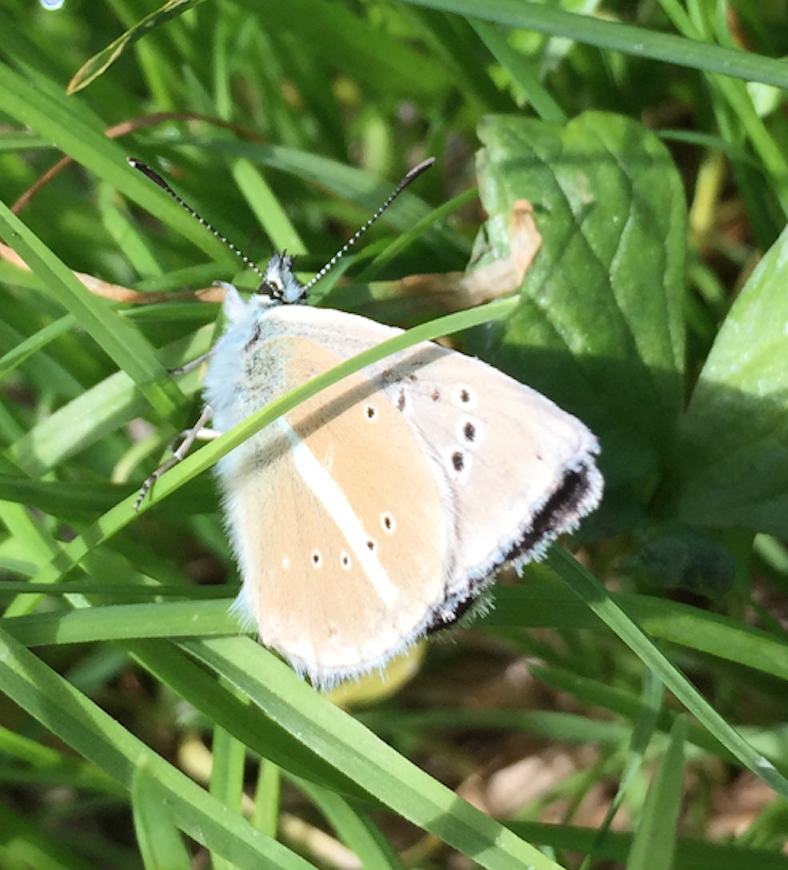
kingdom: Animalia
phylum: Arthropoda
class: Insecta
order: Lepidoptera
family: Lycaenidae
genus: Agrodiaetus
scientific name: Agrodiaetus damon
